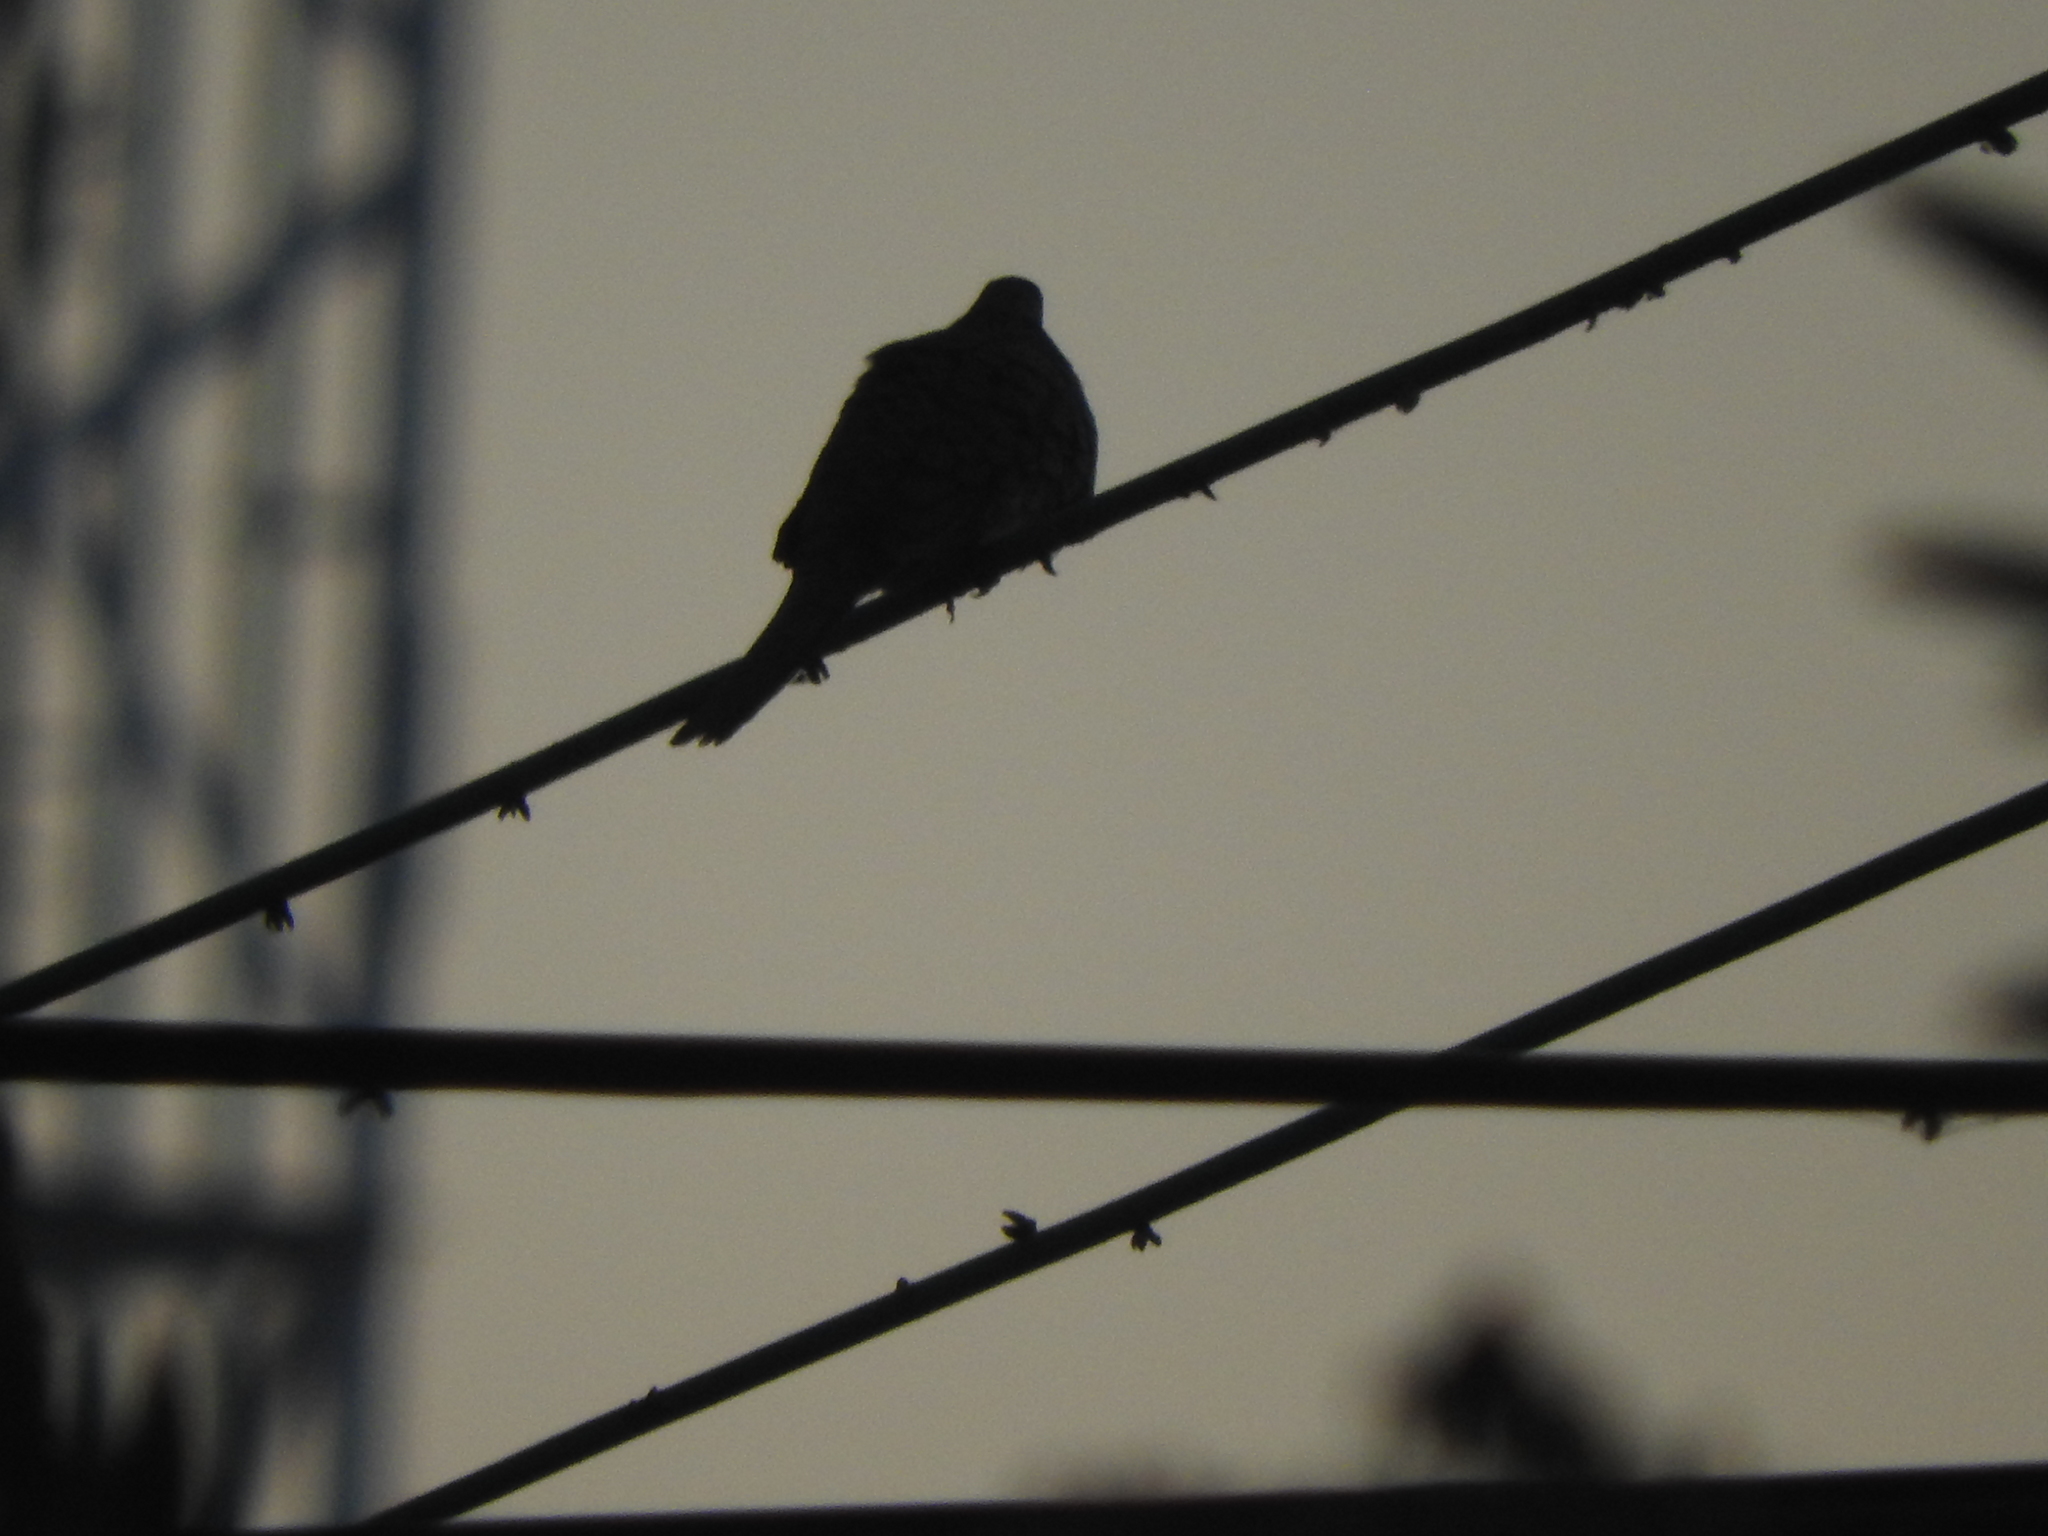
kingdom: Animalia
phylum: Chordata
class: Aves
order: Columbiformes
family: Columbidae
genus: Columbina
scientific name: Columbina inca
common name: Inca dove
